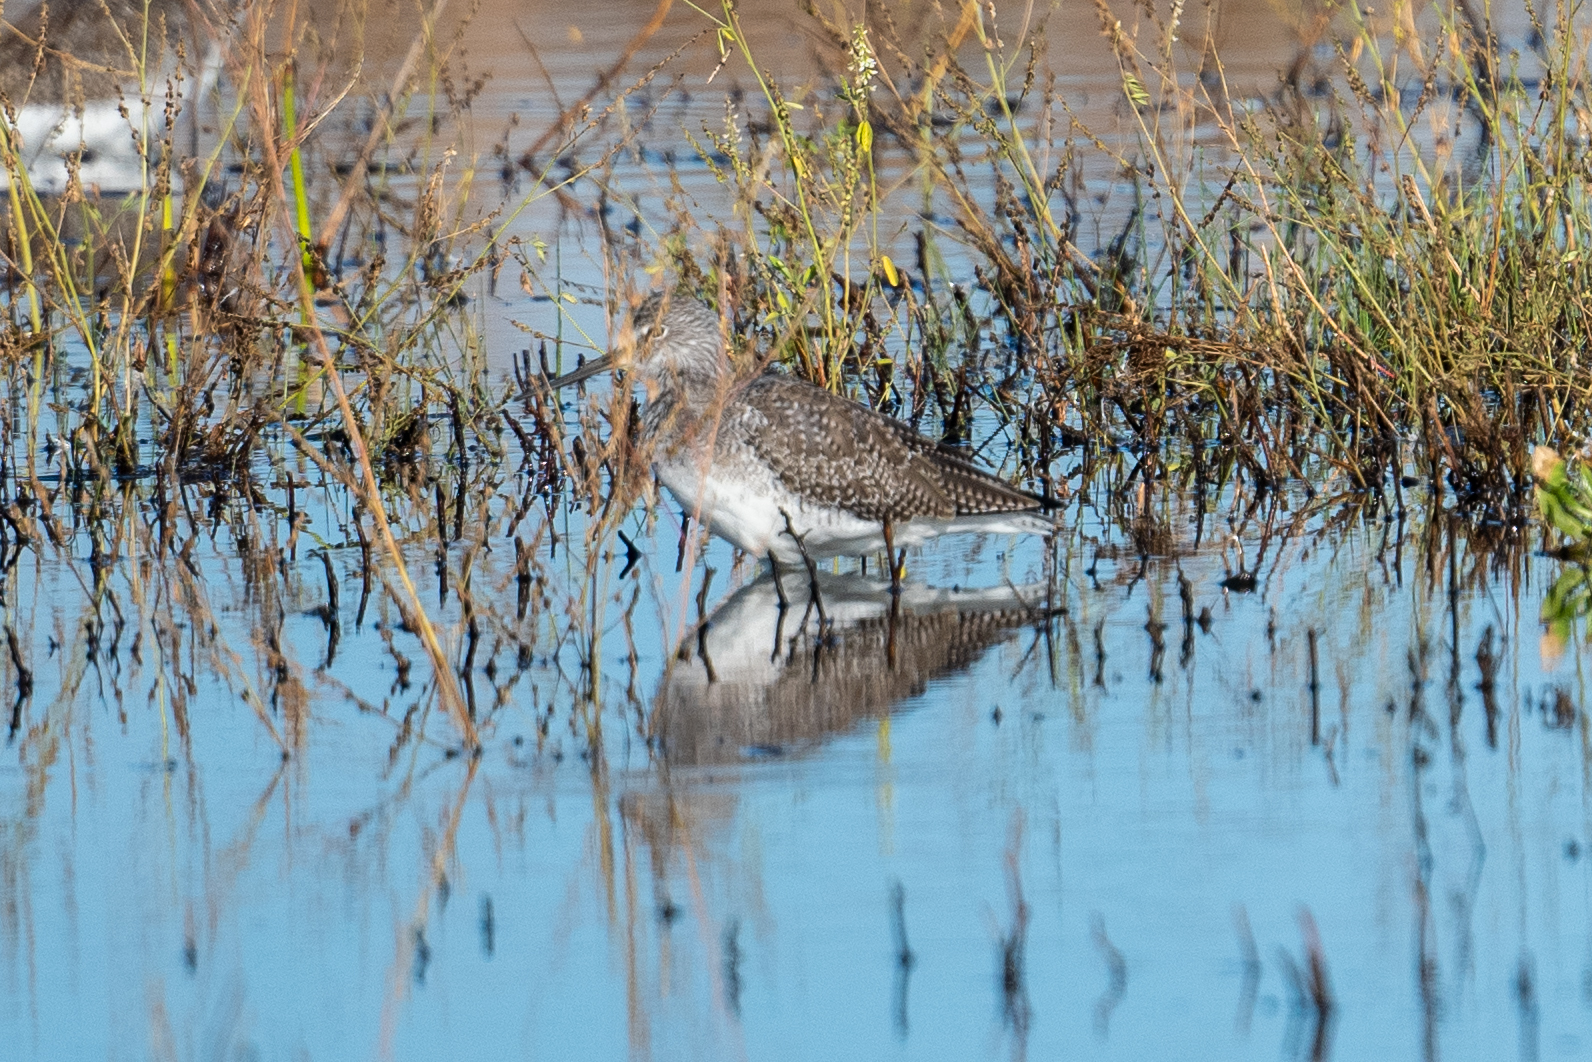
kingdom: Animalia
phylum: Chordata
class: Aves
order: Charadriiformes
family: Scolopacidae
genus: Tringa
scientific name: Tringa melanoleuca
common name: Greater yellowlegs
